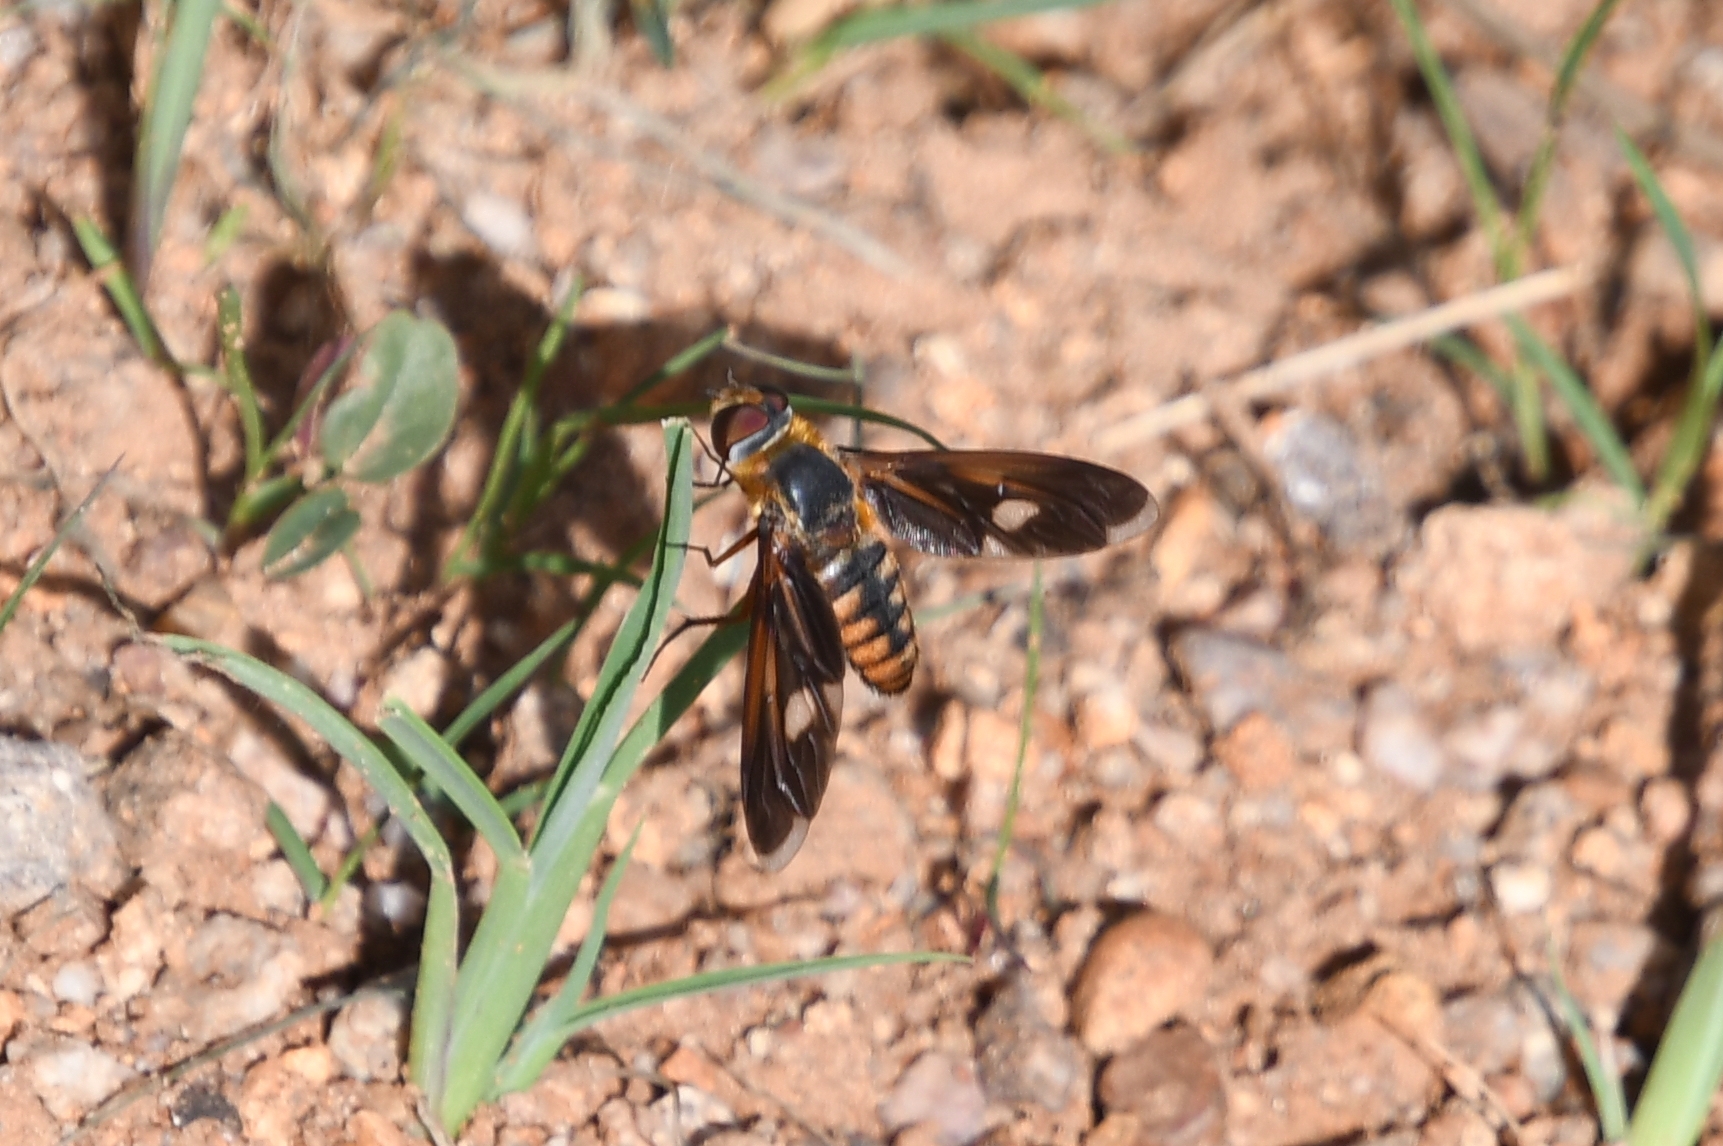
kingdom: Animalia
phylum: Arthropoda
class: Insecta
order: Diptera
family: Bombyliidae
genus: Poecilanthrax
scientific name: Poecilanthrax effrenus
